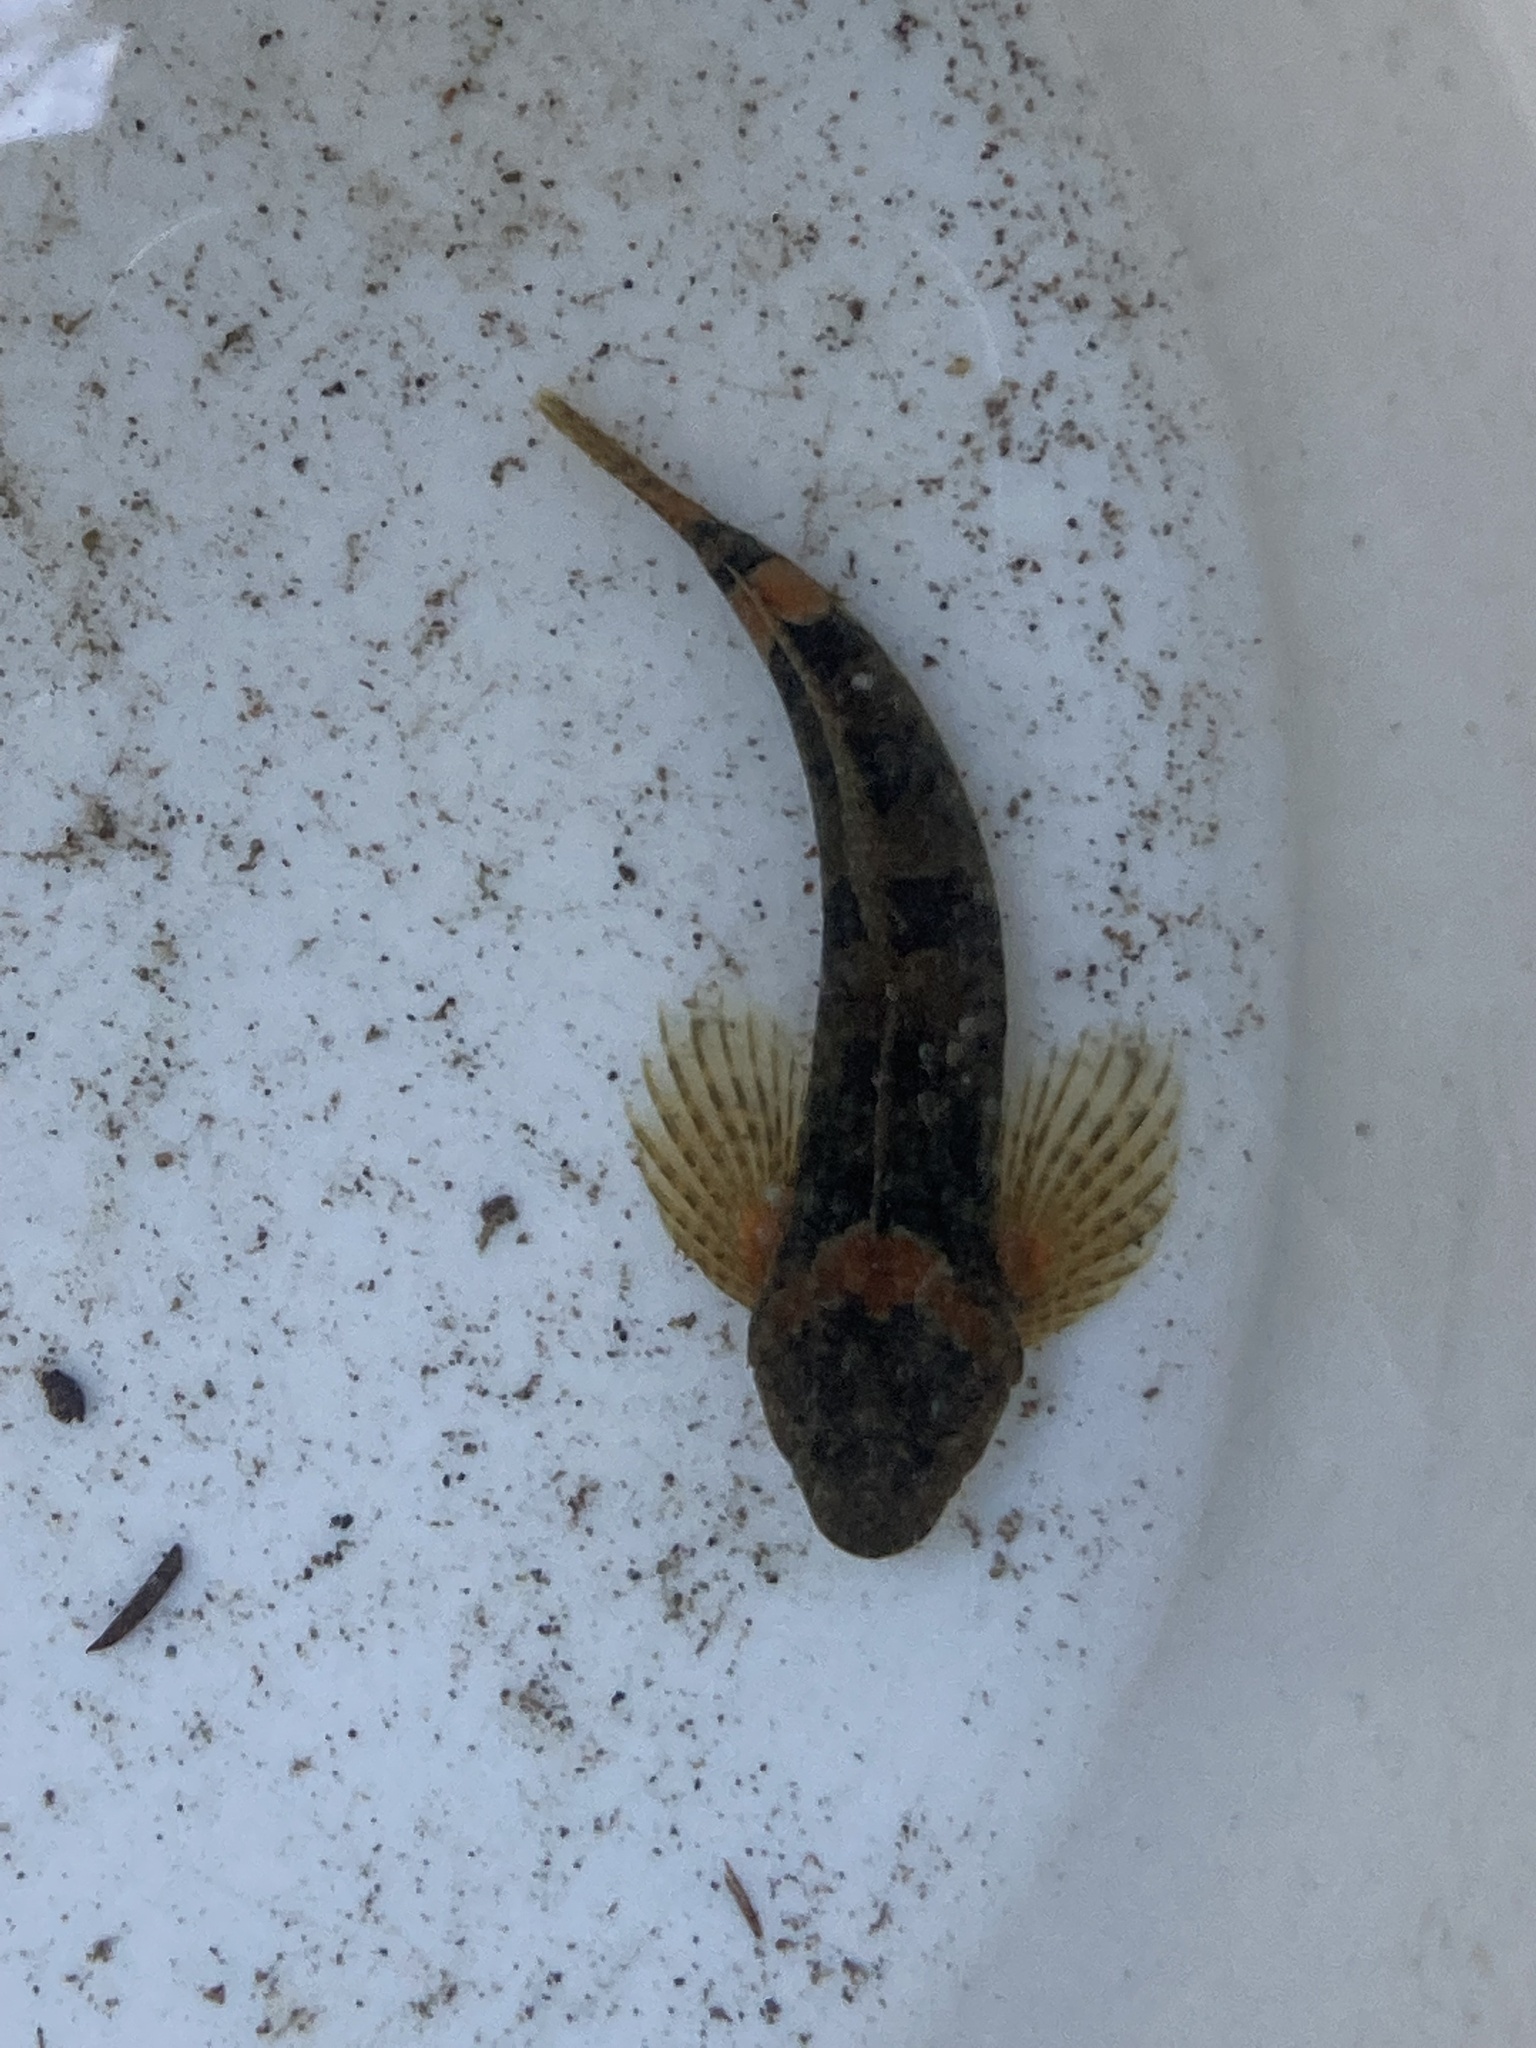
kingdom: Animalia
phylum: Chordata
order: Scorpaeniformes
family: Cottidae
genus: Cottus
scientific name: Cottus aleuticus
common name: Coastrange sculpin
